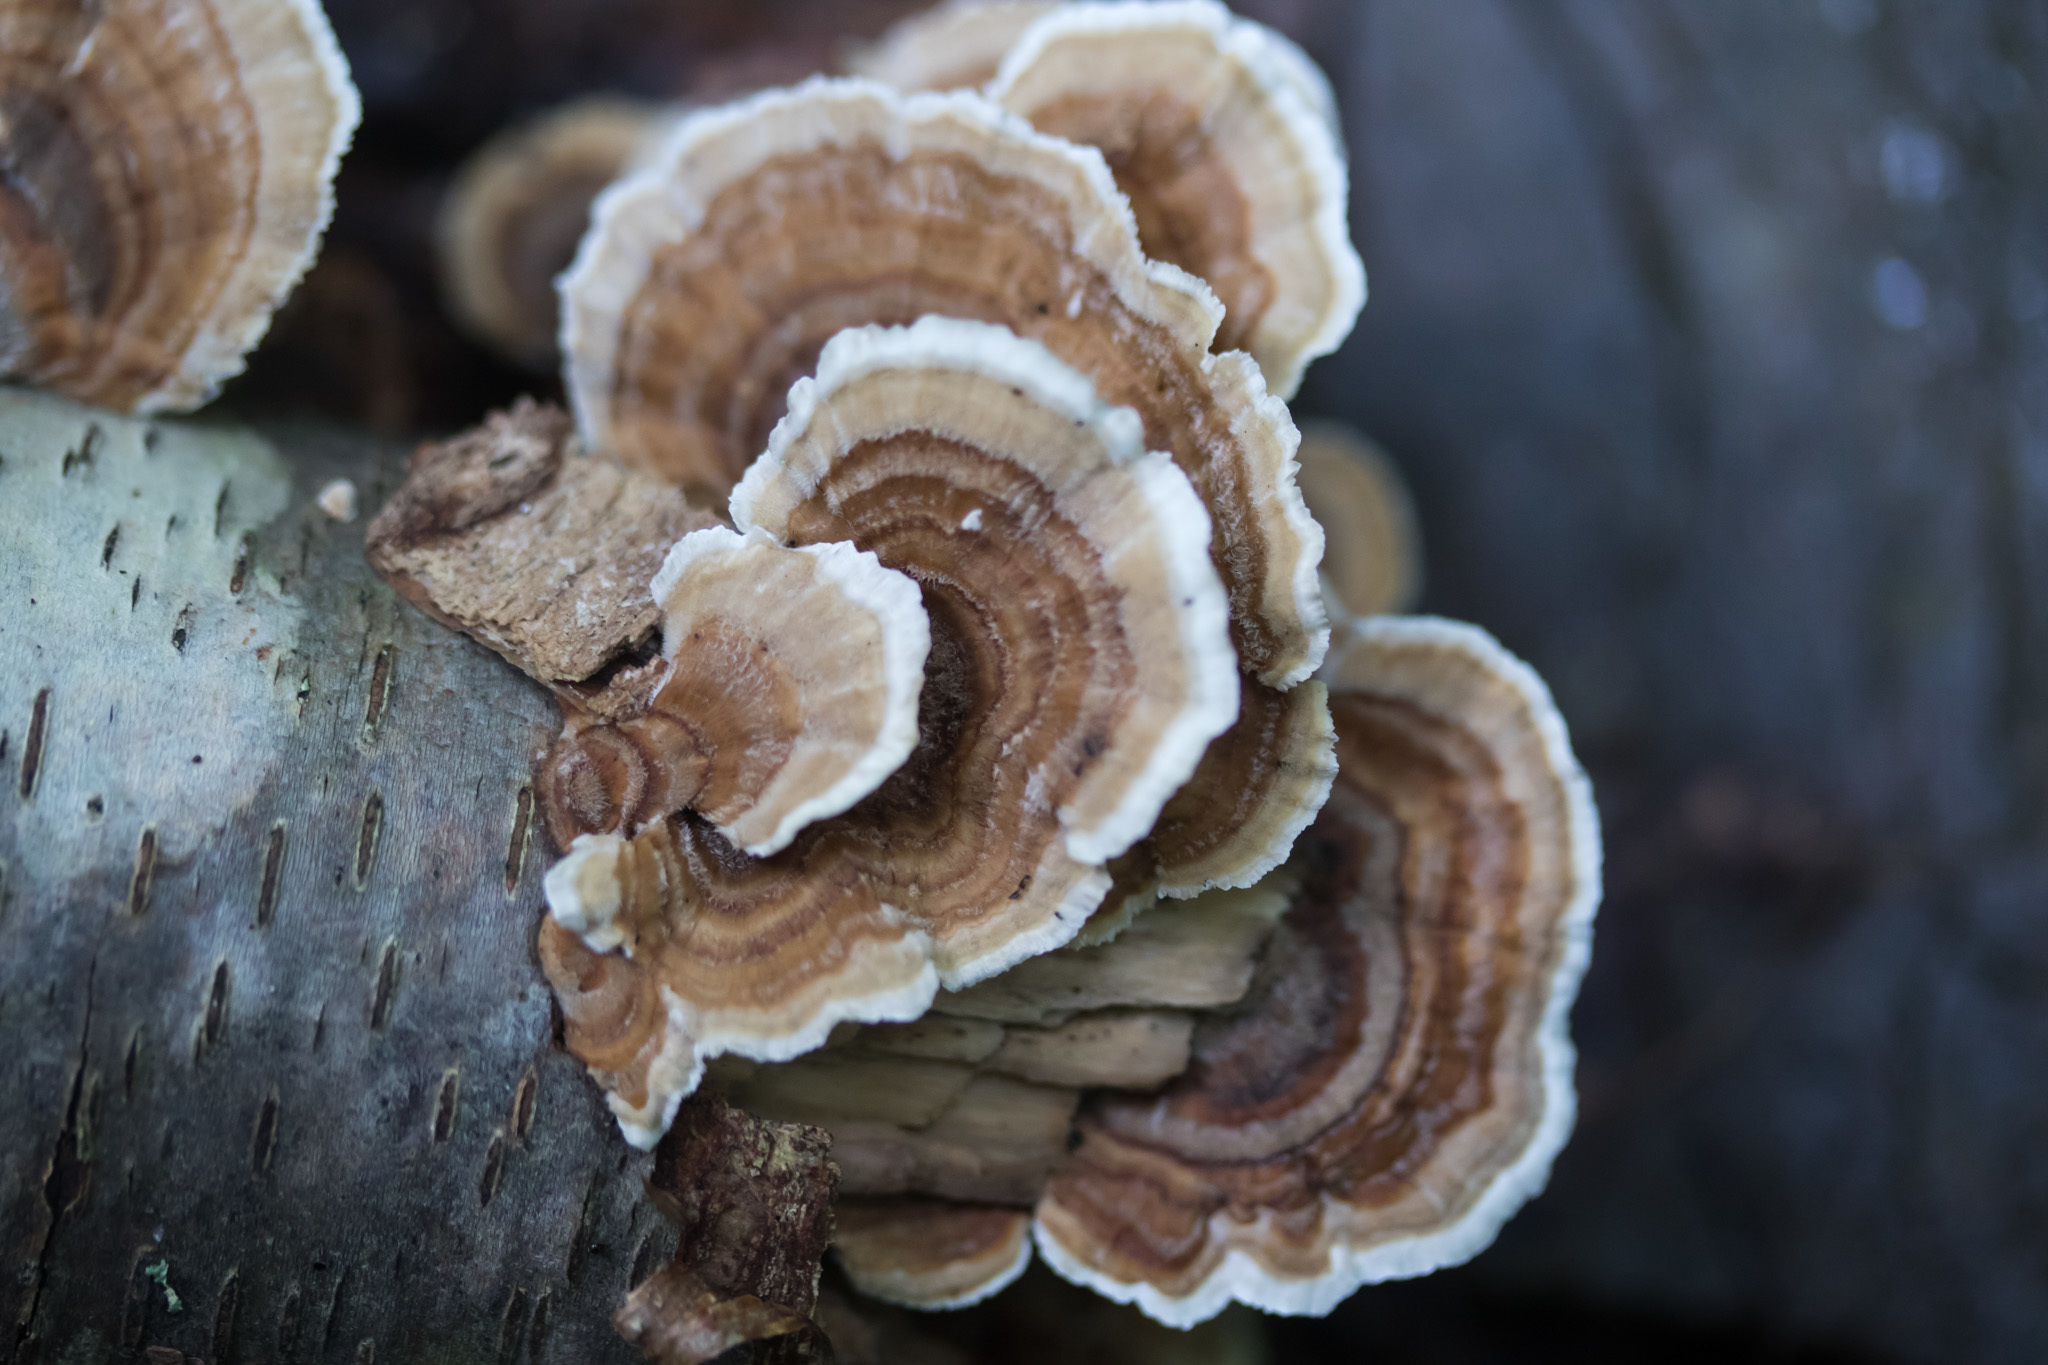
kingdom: Fungi
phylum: Basidiomycota
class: Agaricomycetes
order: Polyporales
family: Polyporaceae
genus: Trametes
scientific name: Trametes versicolor
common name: Turkeytail
